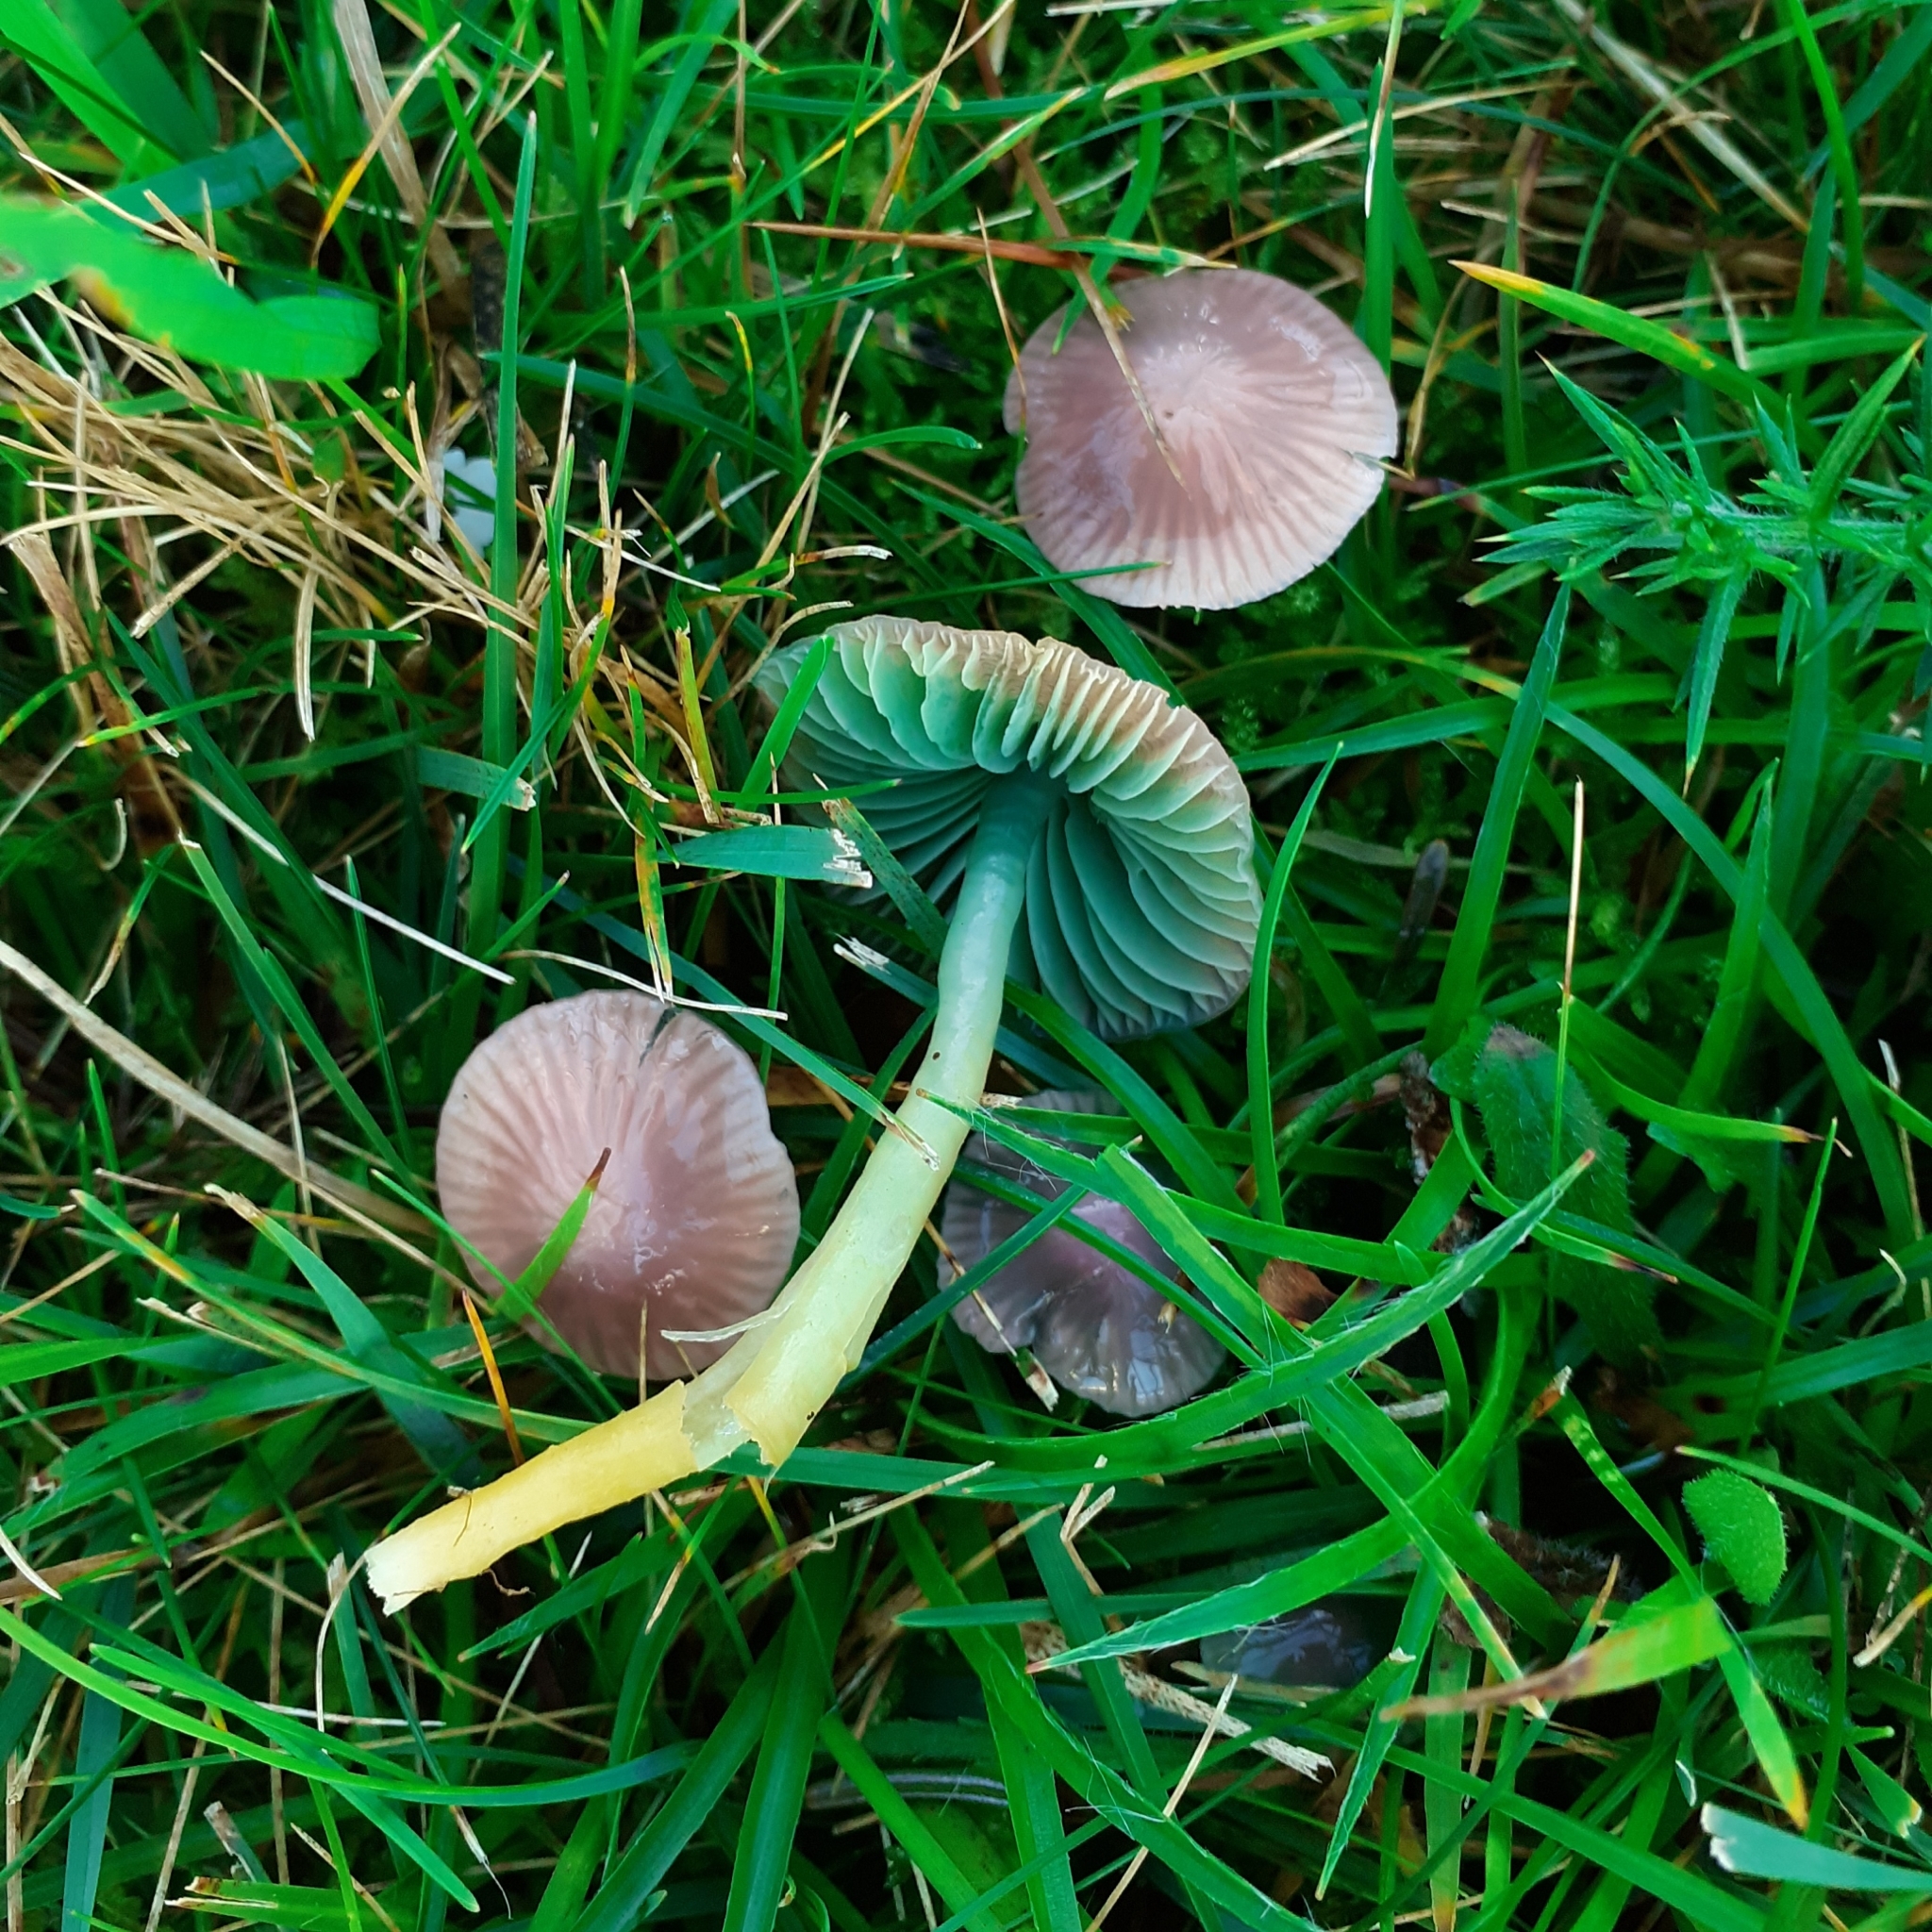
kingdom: Fungi
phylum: Basidiomycota
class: Agaricomycetes
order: Agaricales
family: Hygrophoraceae
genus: Gliophorus
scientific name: Gliophorus psittacinus
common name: Parrot wax-cap
